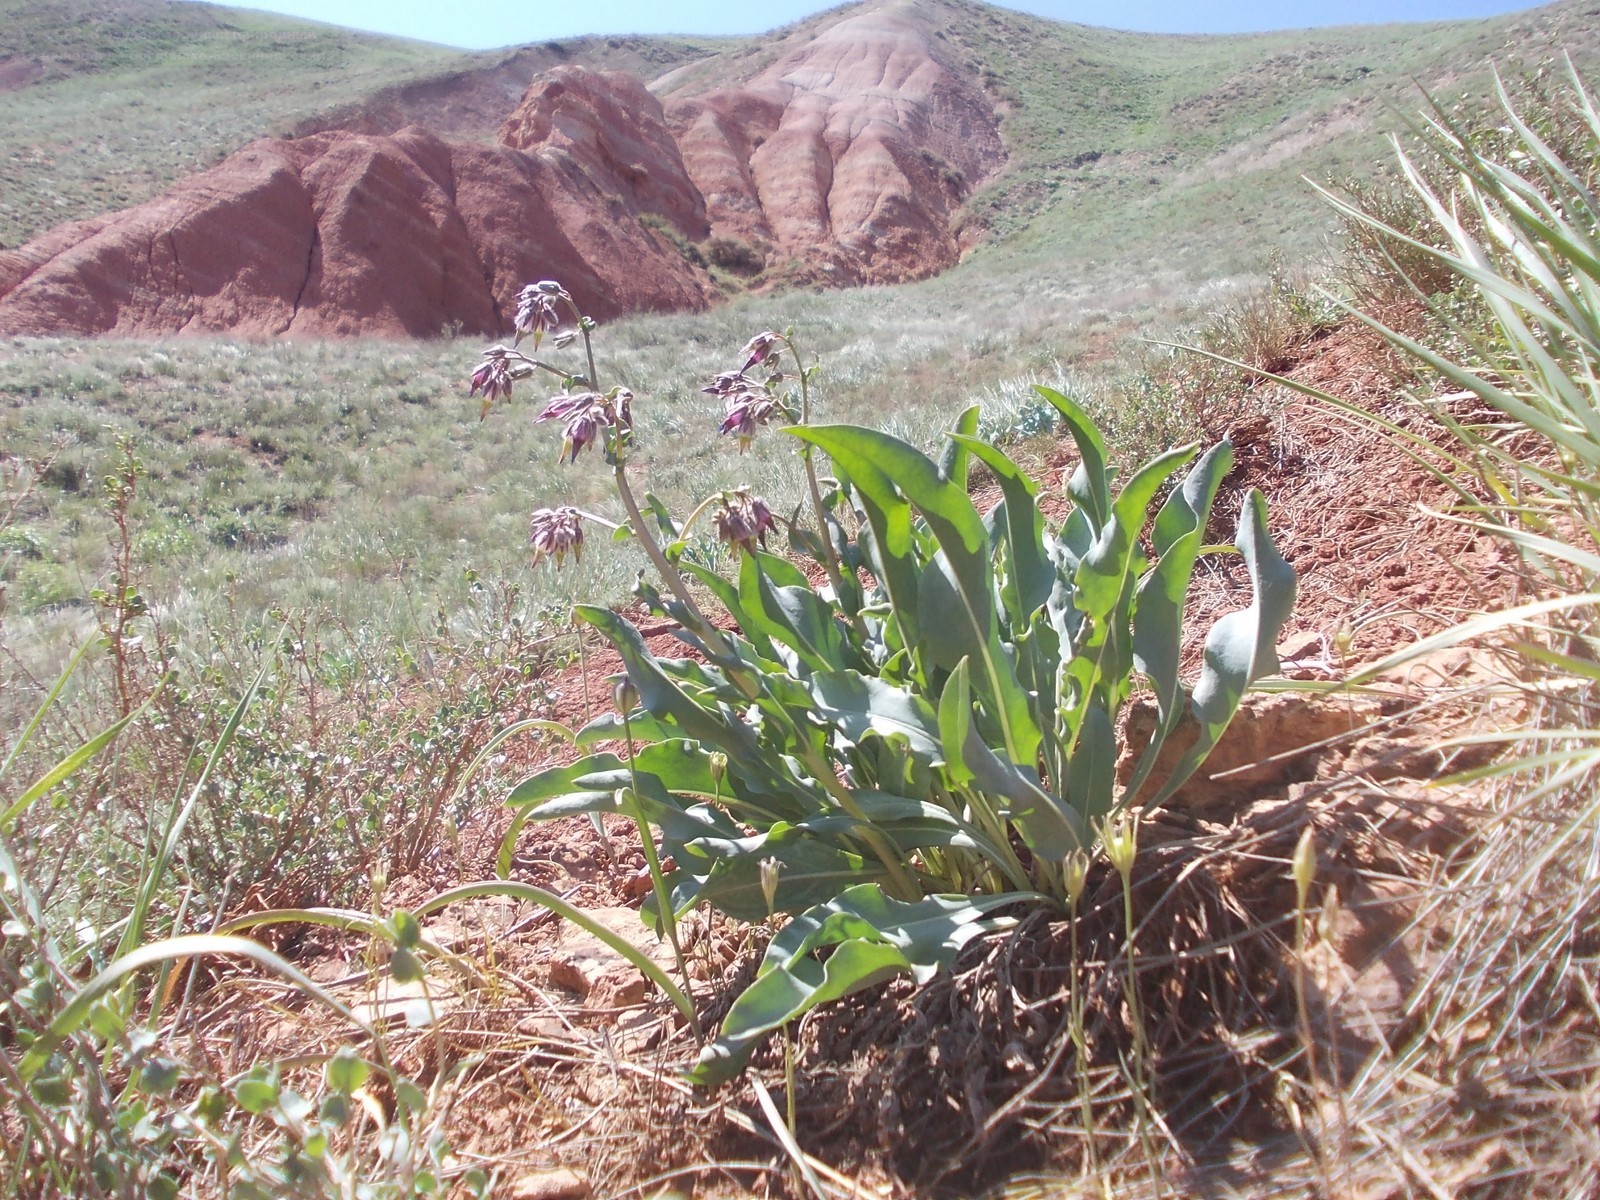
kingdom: Plantae
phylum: Tracheophyta
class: Magnoliopsida
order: Boraginales
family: Boraginaceae
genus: Rindera
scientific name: Rindera tetraspis
